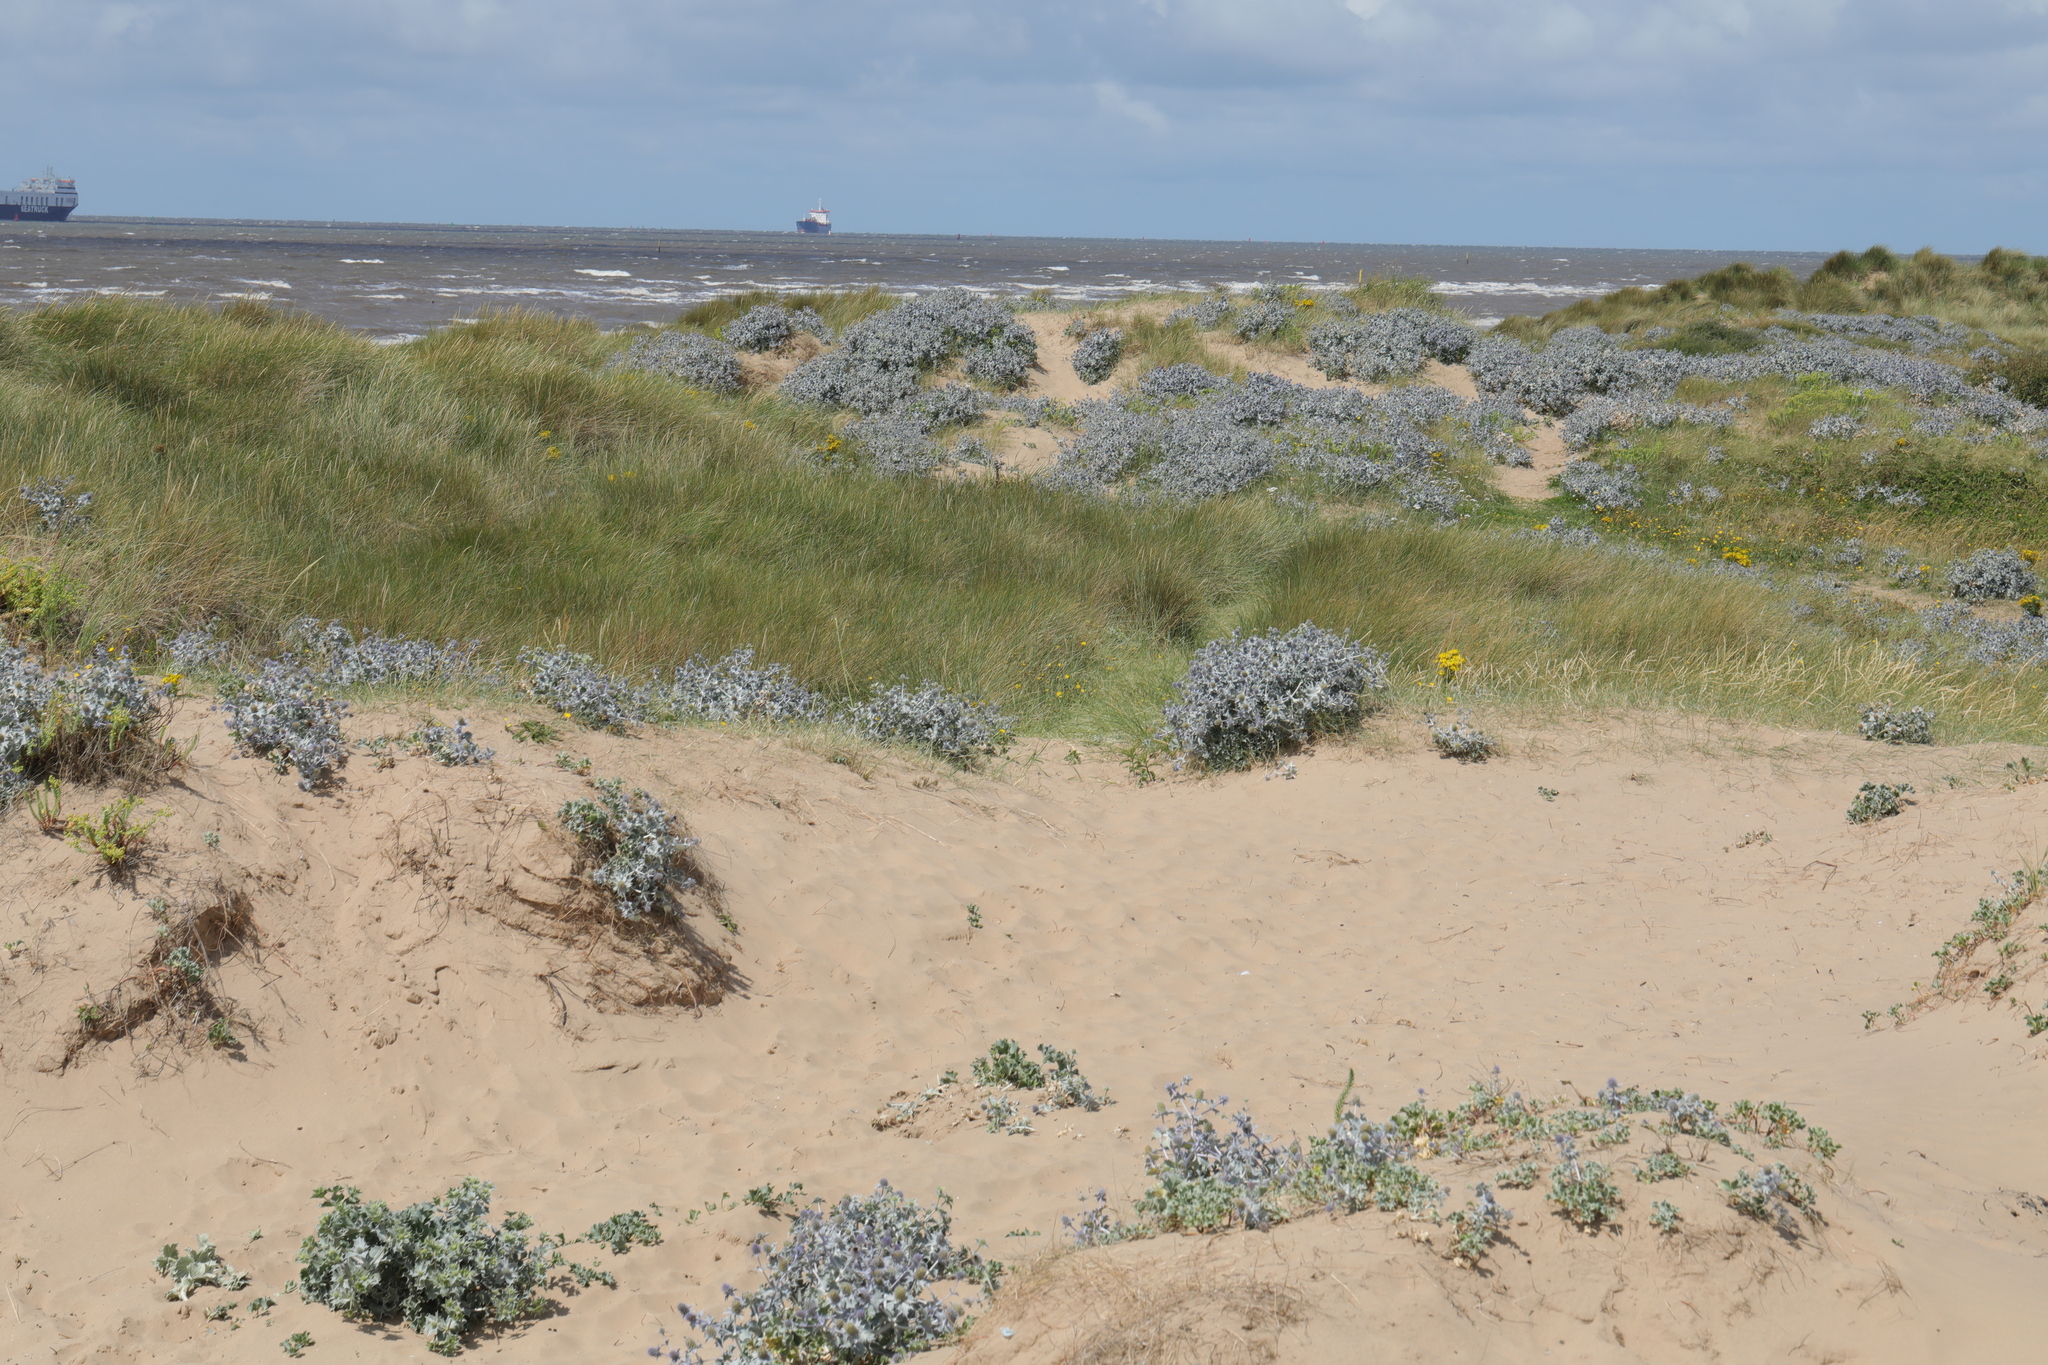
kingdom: Plantae
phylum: Tracheophyta
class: Magnoliopsida
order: Apiales
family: Apiaceae
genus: Eryngium
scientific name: Eryngium maritimum
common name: Sea-holly
